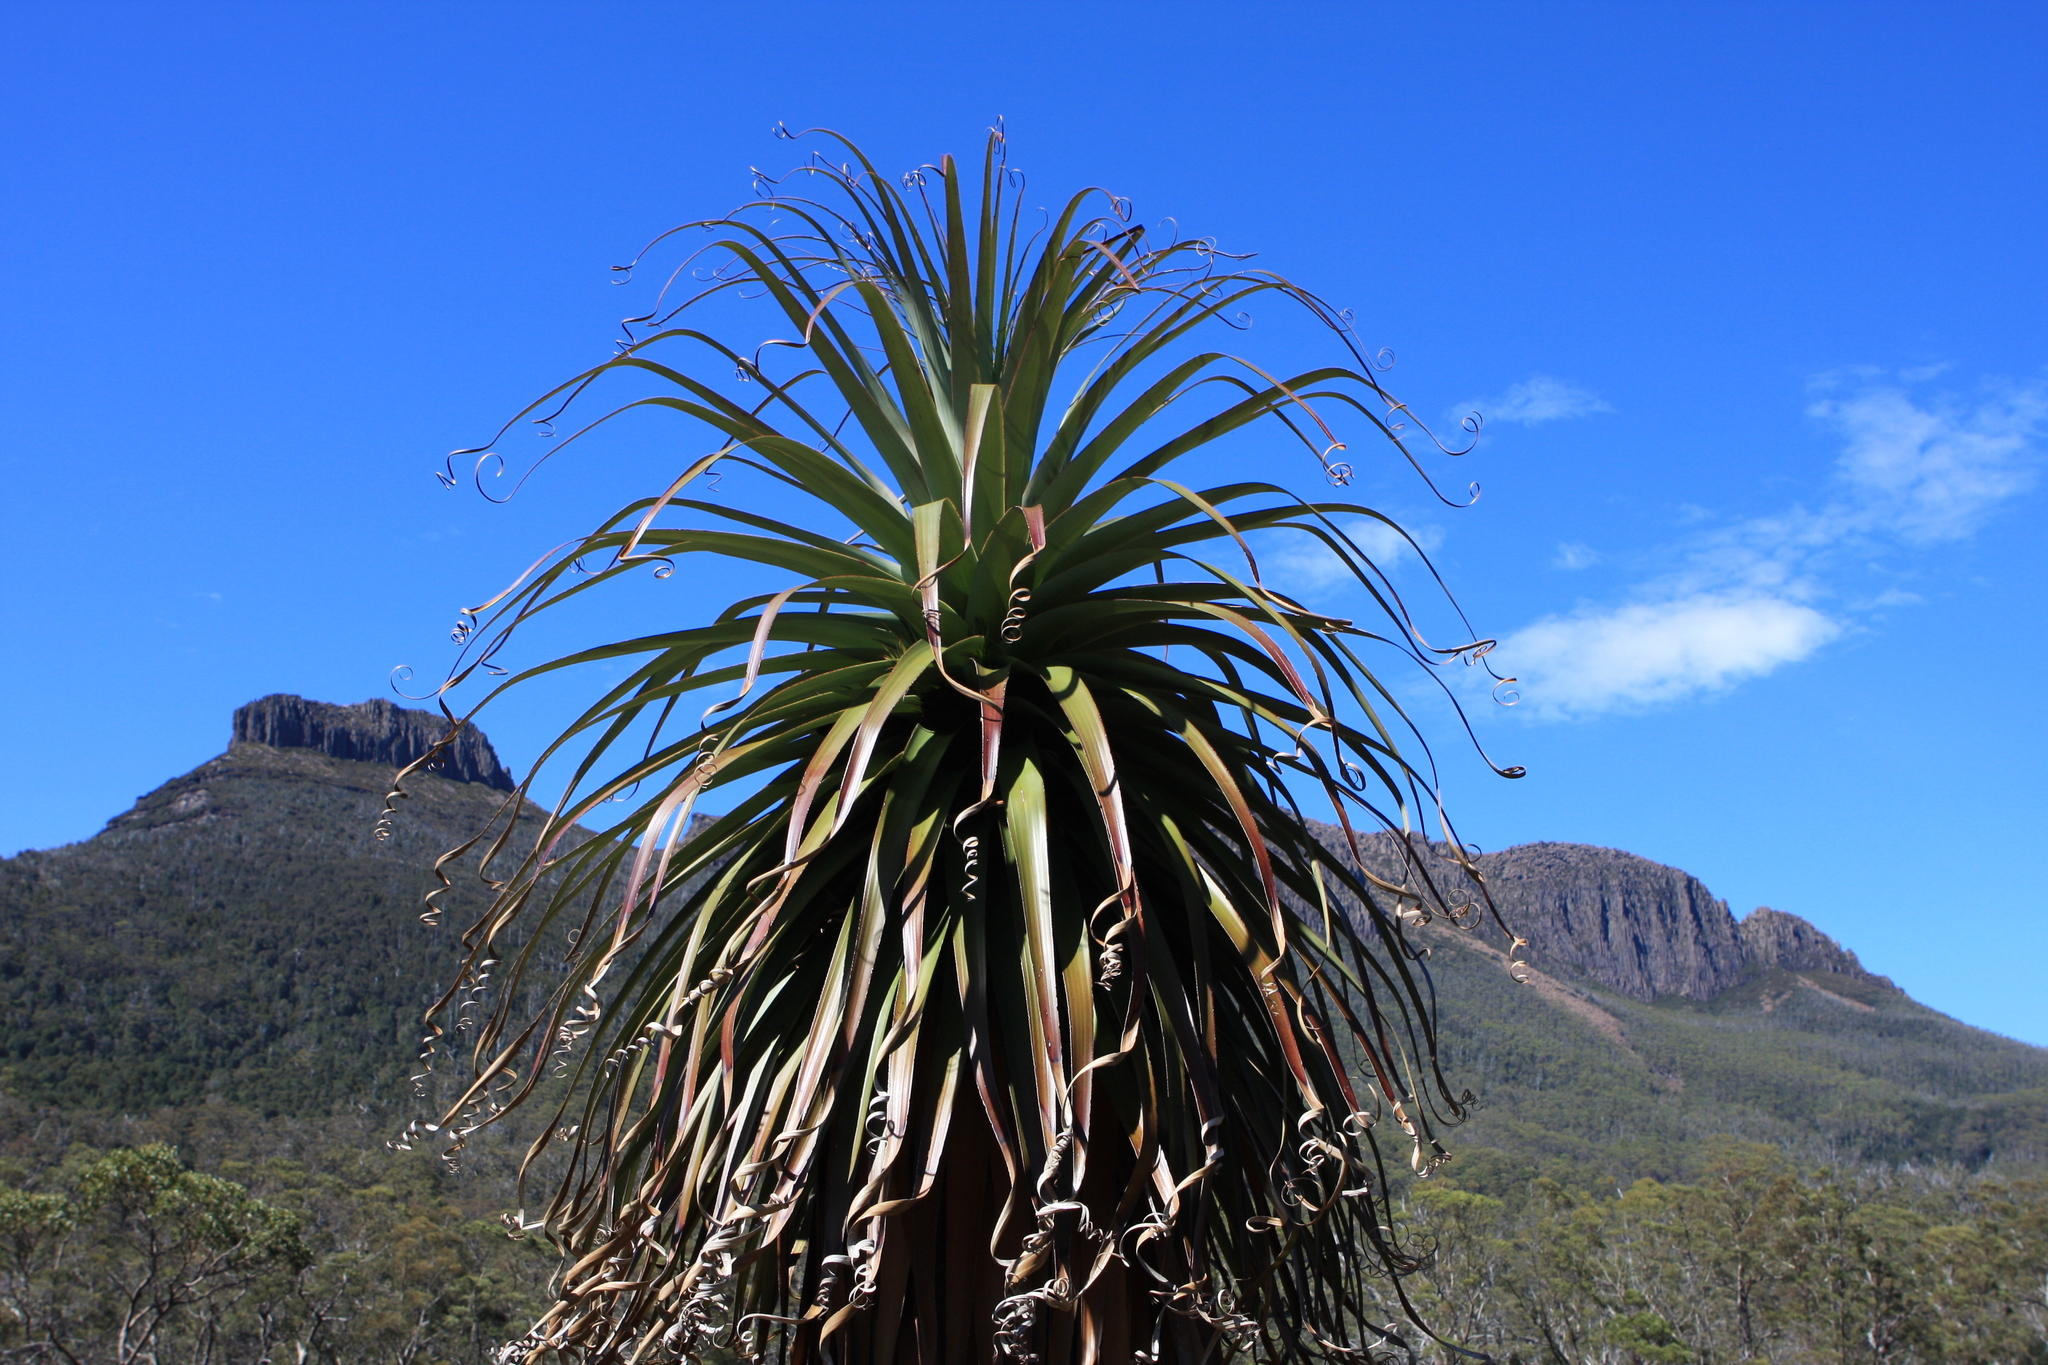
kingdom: Plantae
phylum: Tracheophyta
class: Magnoliopsida
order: Ericales
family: Ericaceae
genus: Dracophyllum
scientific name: Dracophyllum pandanifolium
